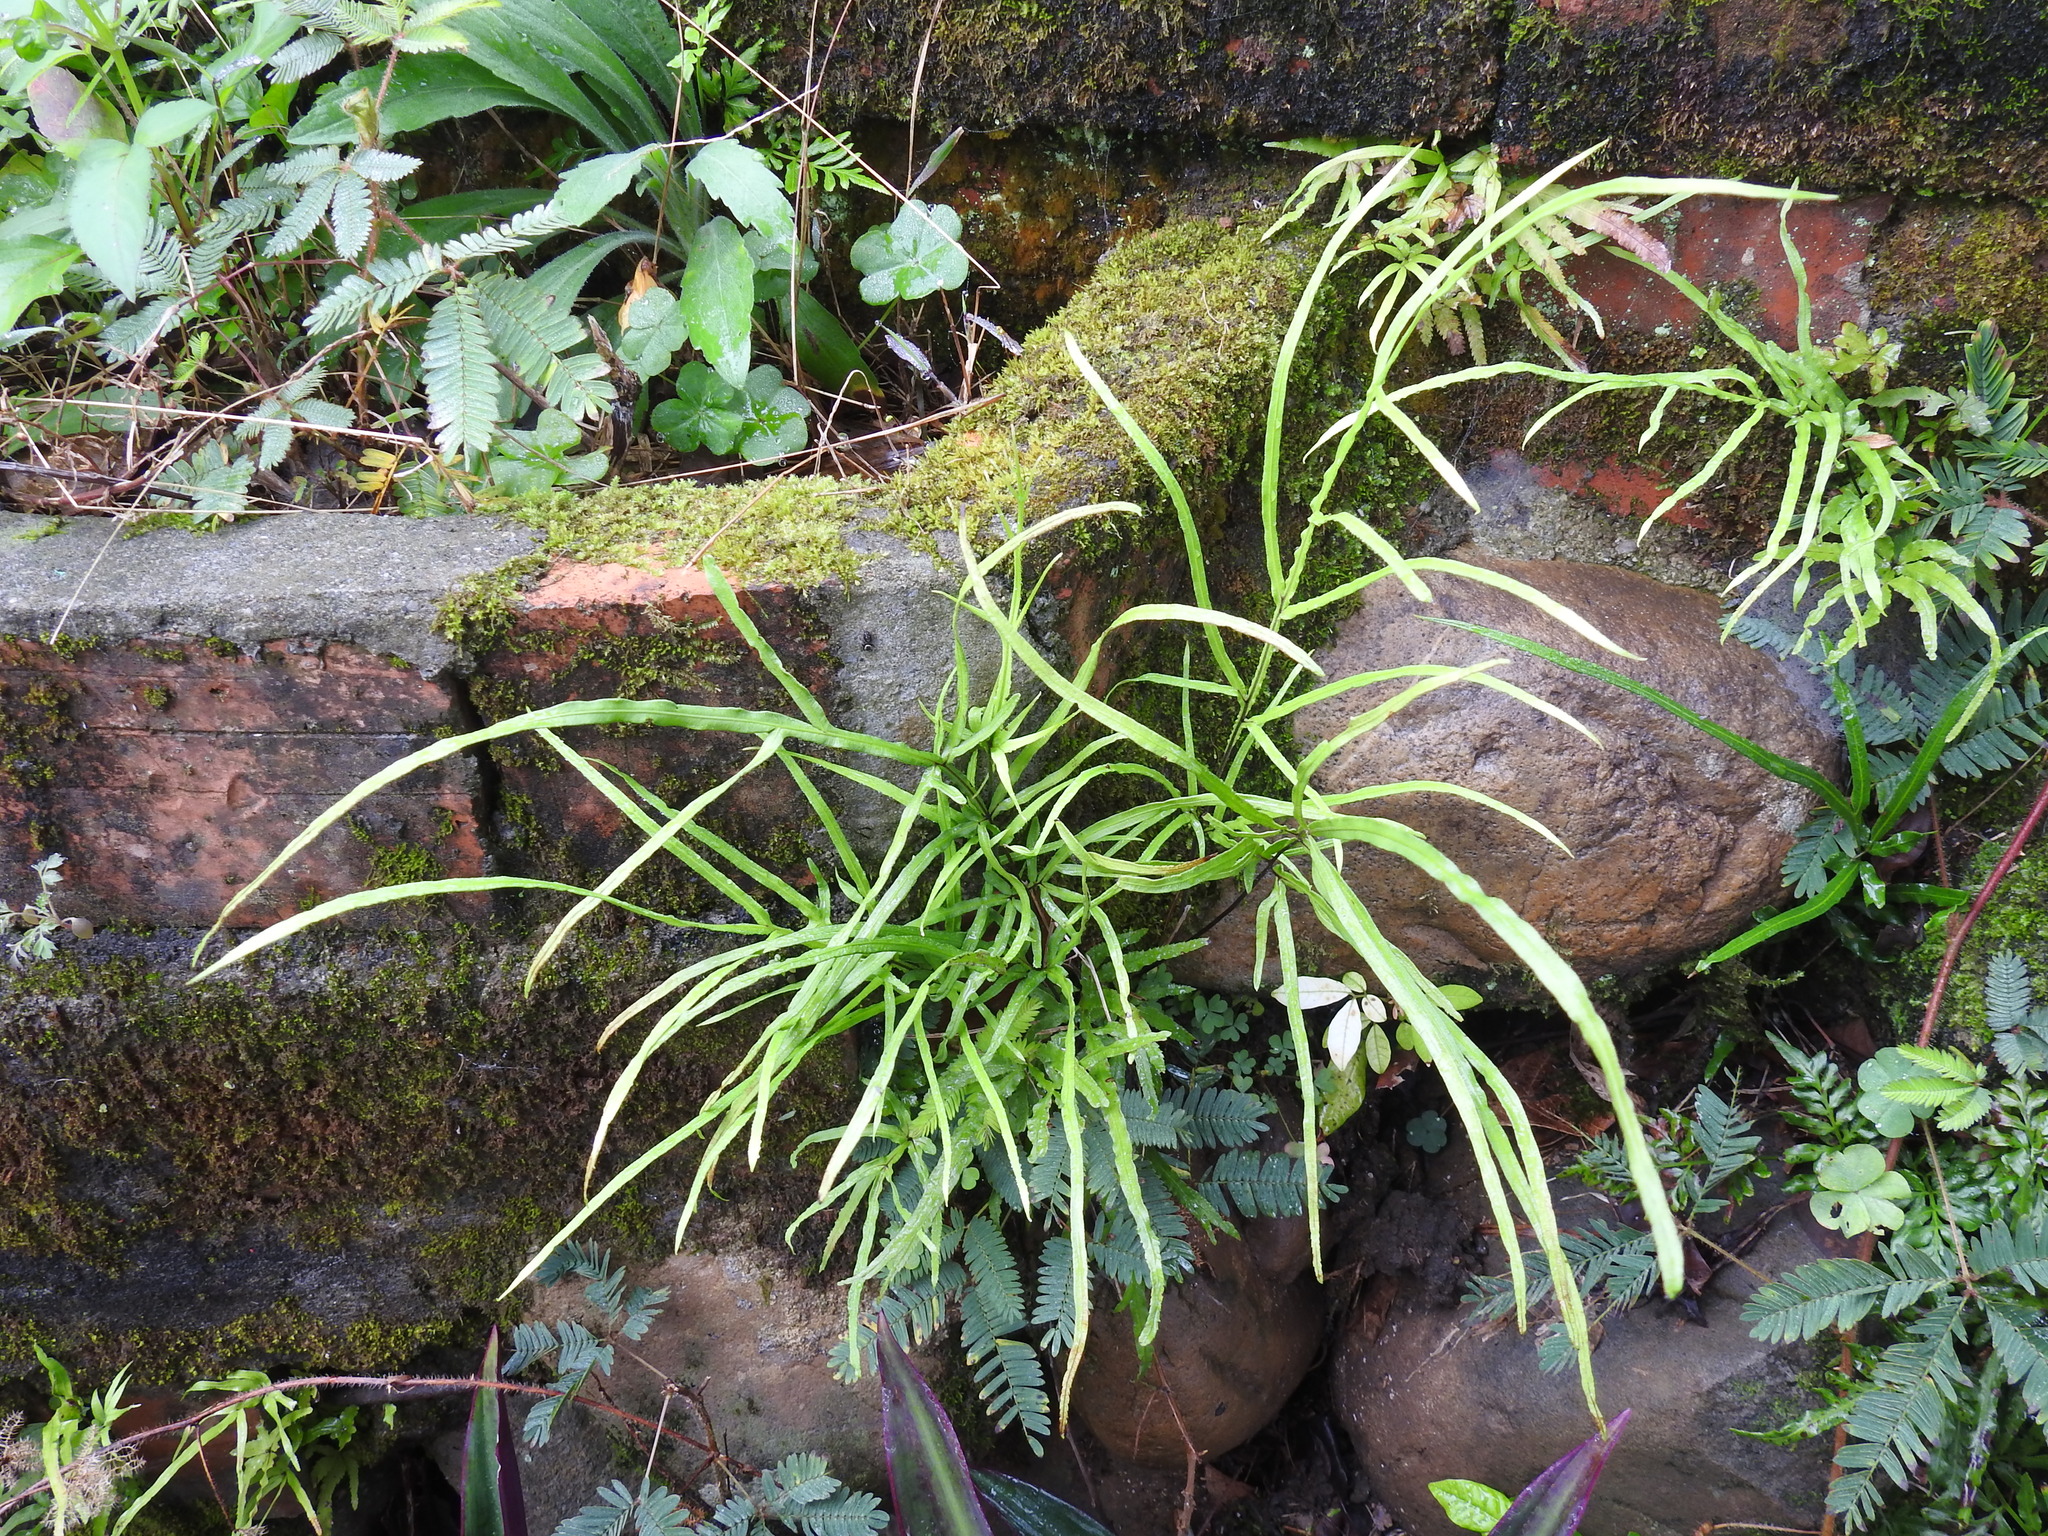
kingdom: Plantae
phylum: Tracheophyta
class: Polypodiopsida
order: Polypodiales
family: Pteridaceae
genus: Pteris
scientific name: Pteris multifida
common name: Spider brake
